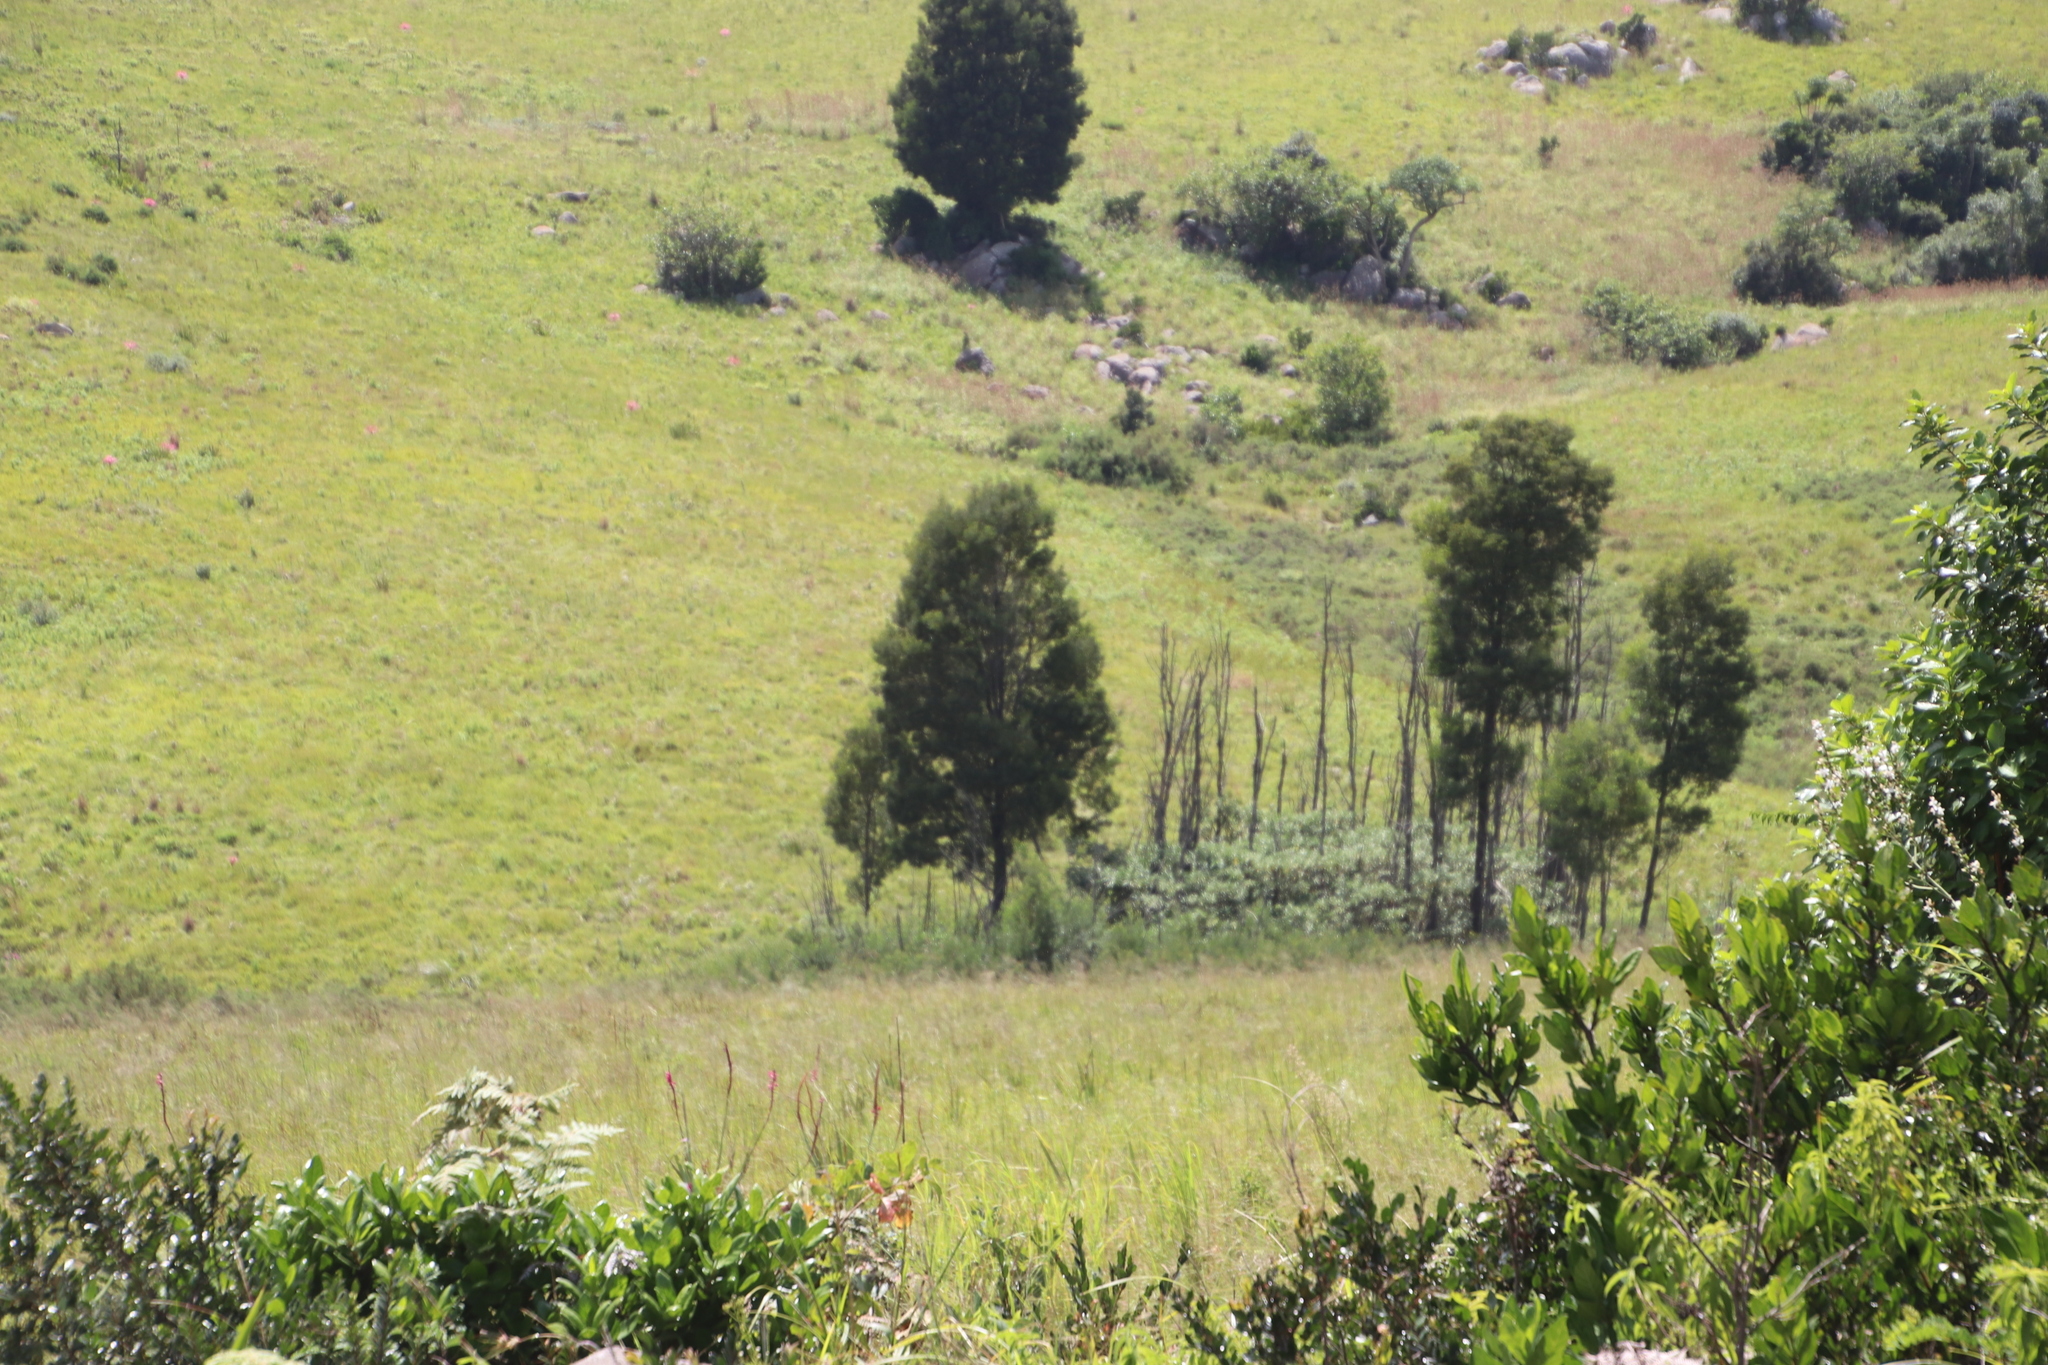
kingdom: Plantae
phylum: Tracheophyta
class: Magnoliopsida
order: Fabales
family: Fabaceae
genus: Acacia
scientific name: Acacia mearnsii
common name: Black wattle
